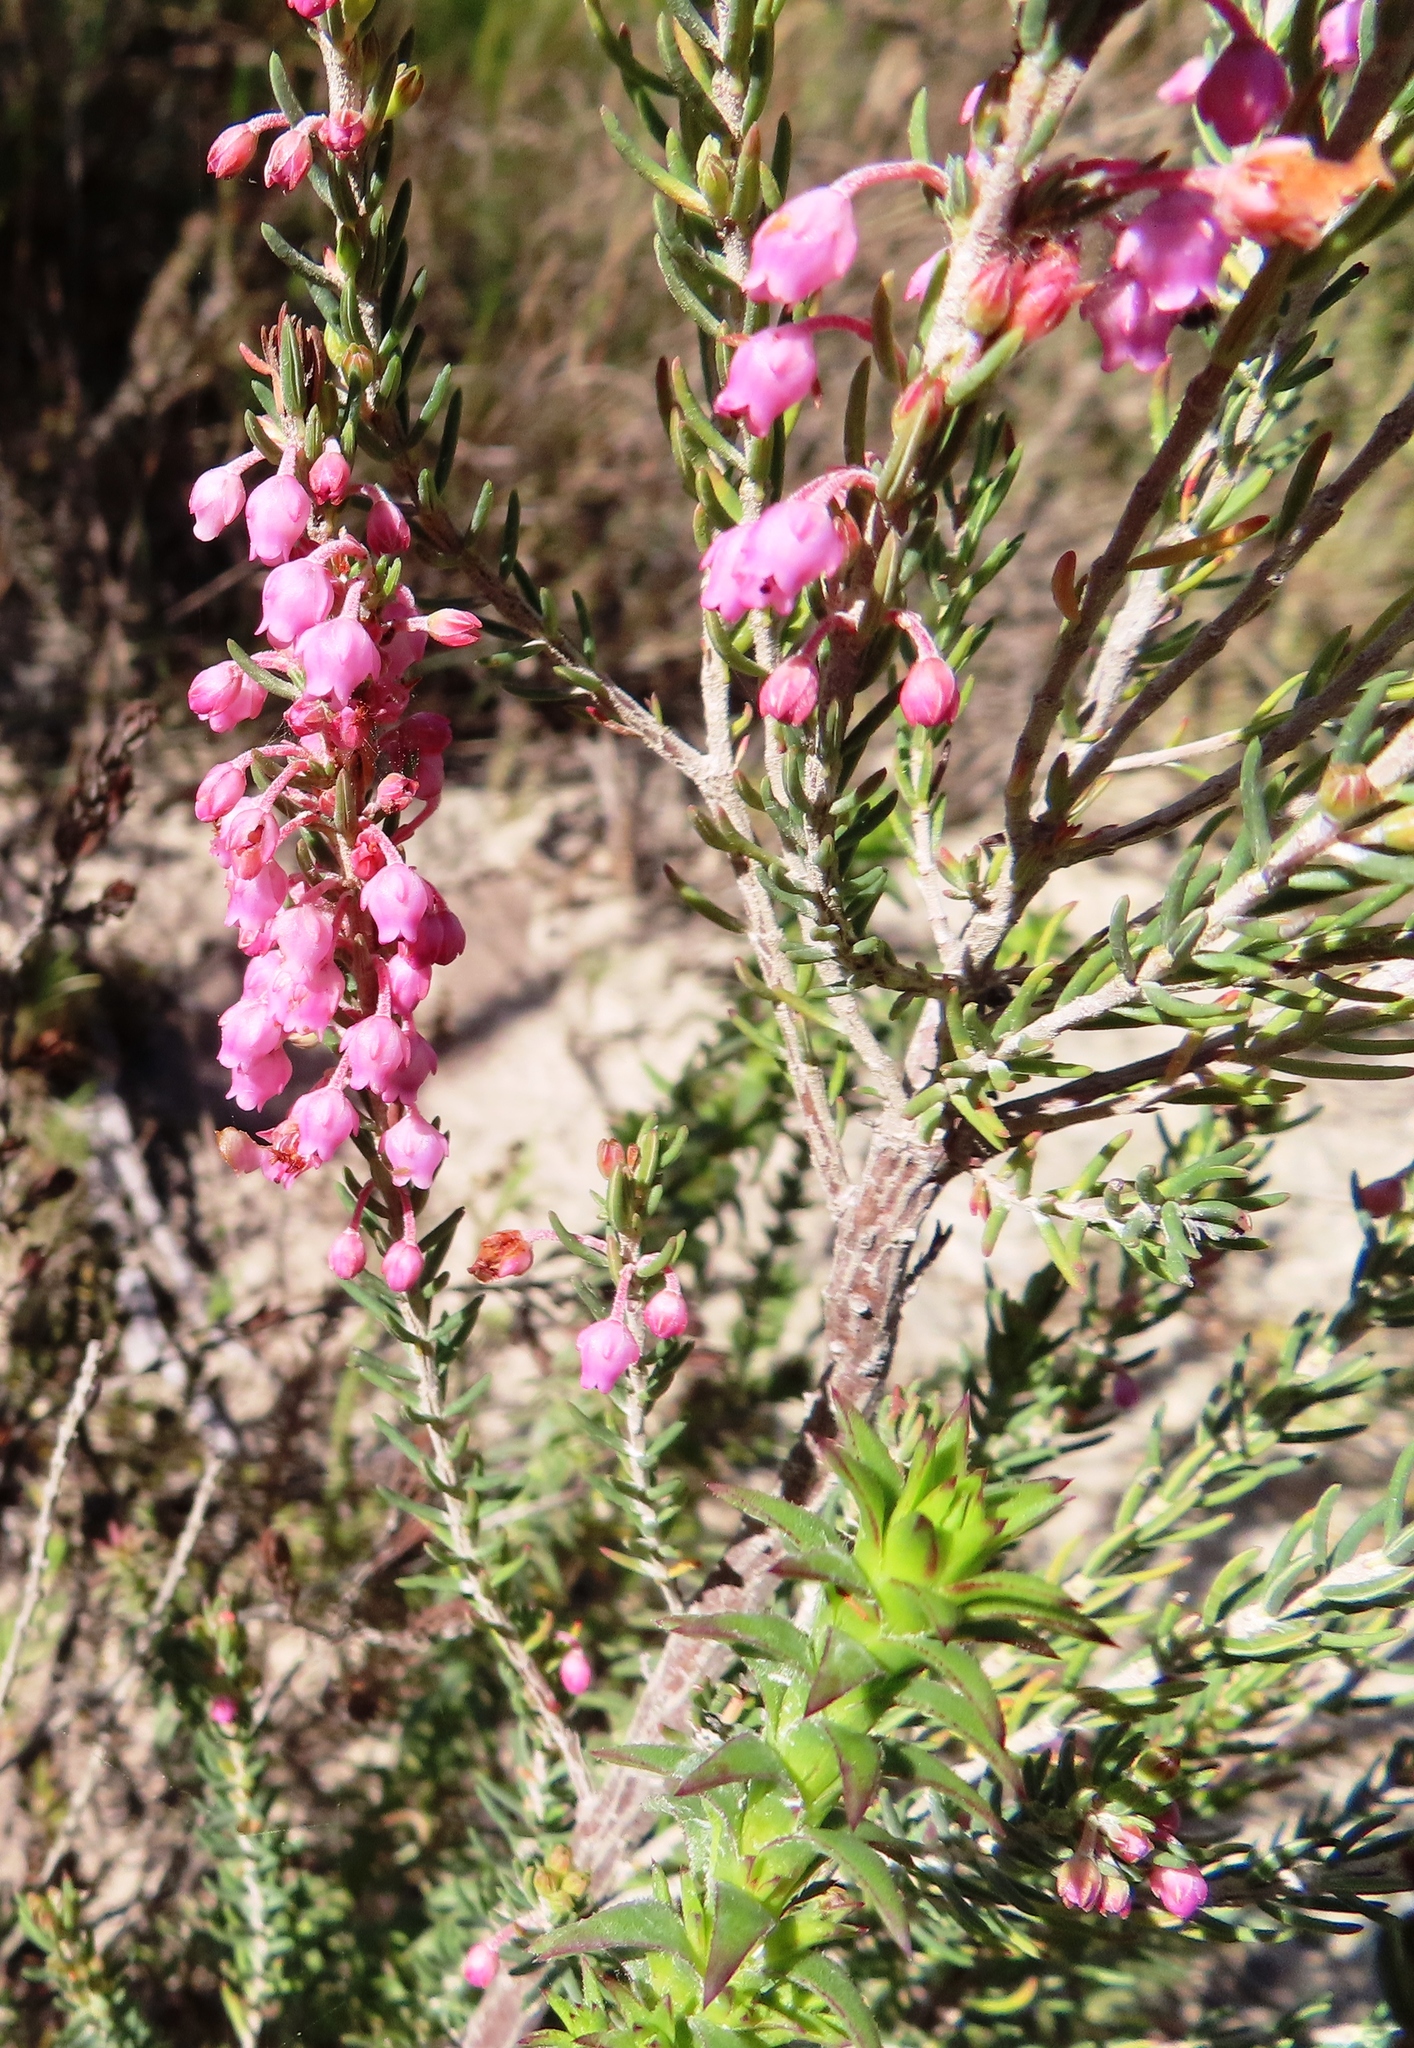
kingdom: Plantae
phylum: Tracheophyta
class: Magnoliopsida
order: Ericales
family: Ericaceae
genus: Erica
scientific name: Erica irregularis
